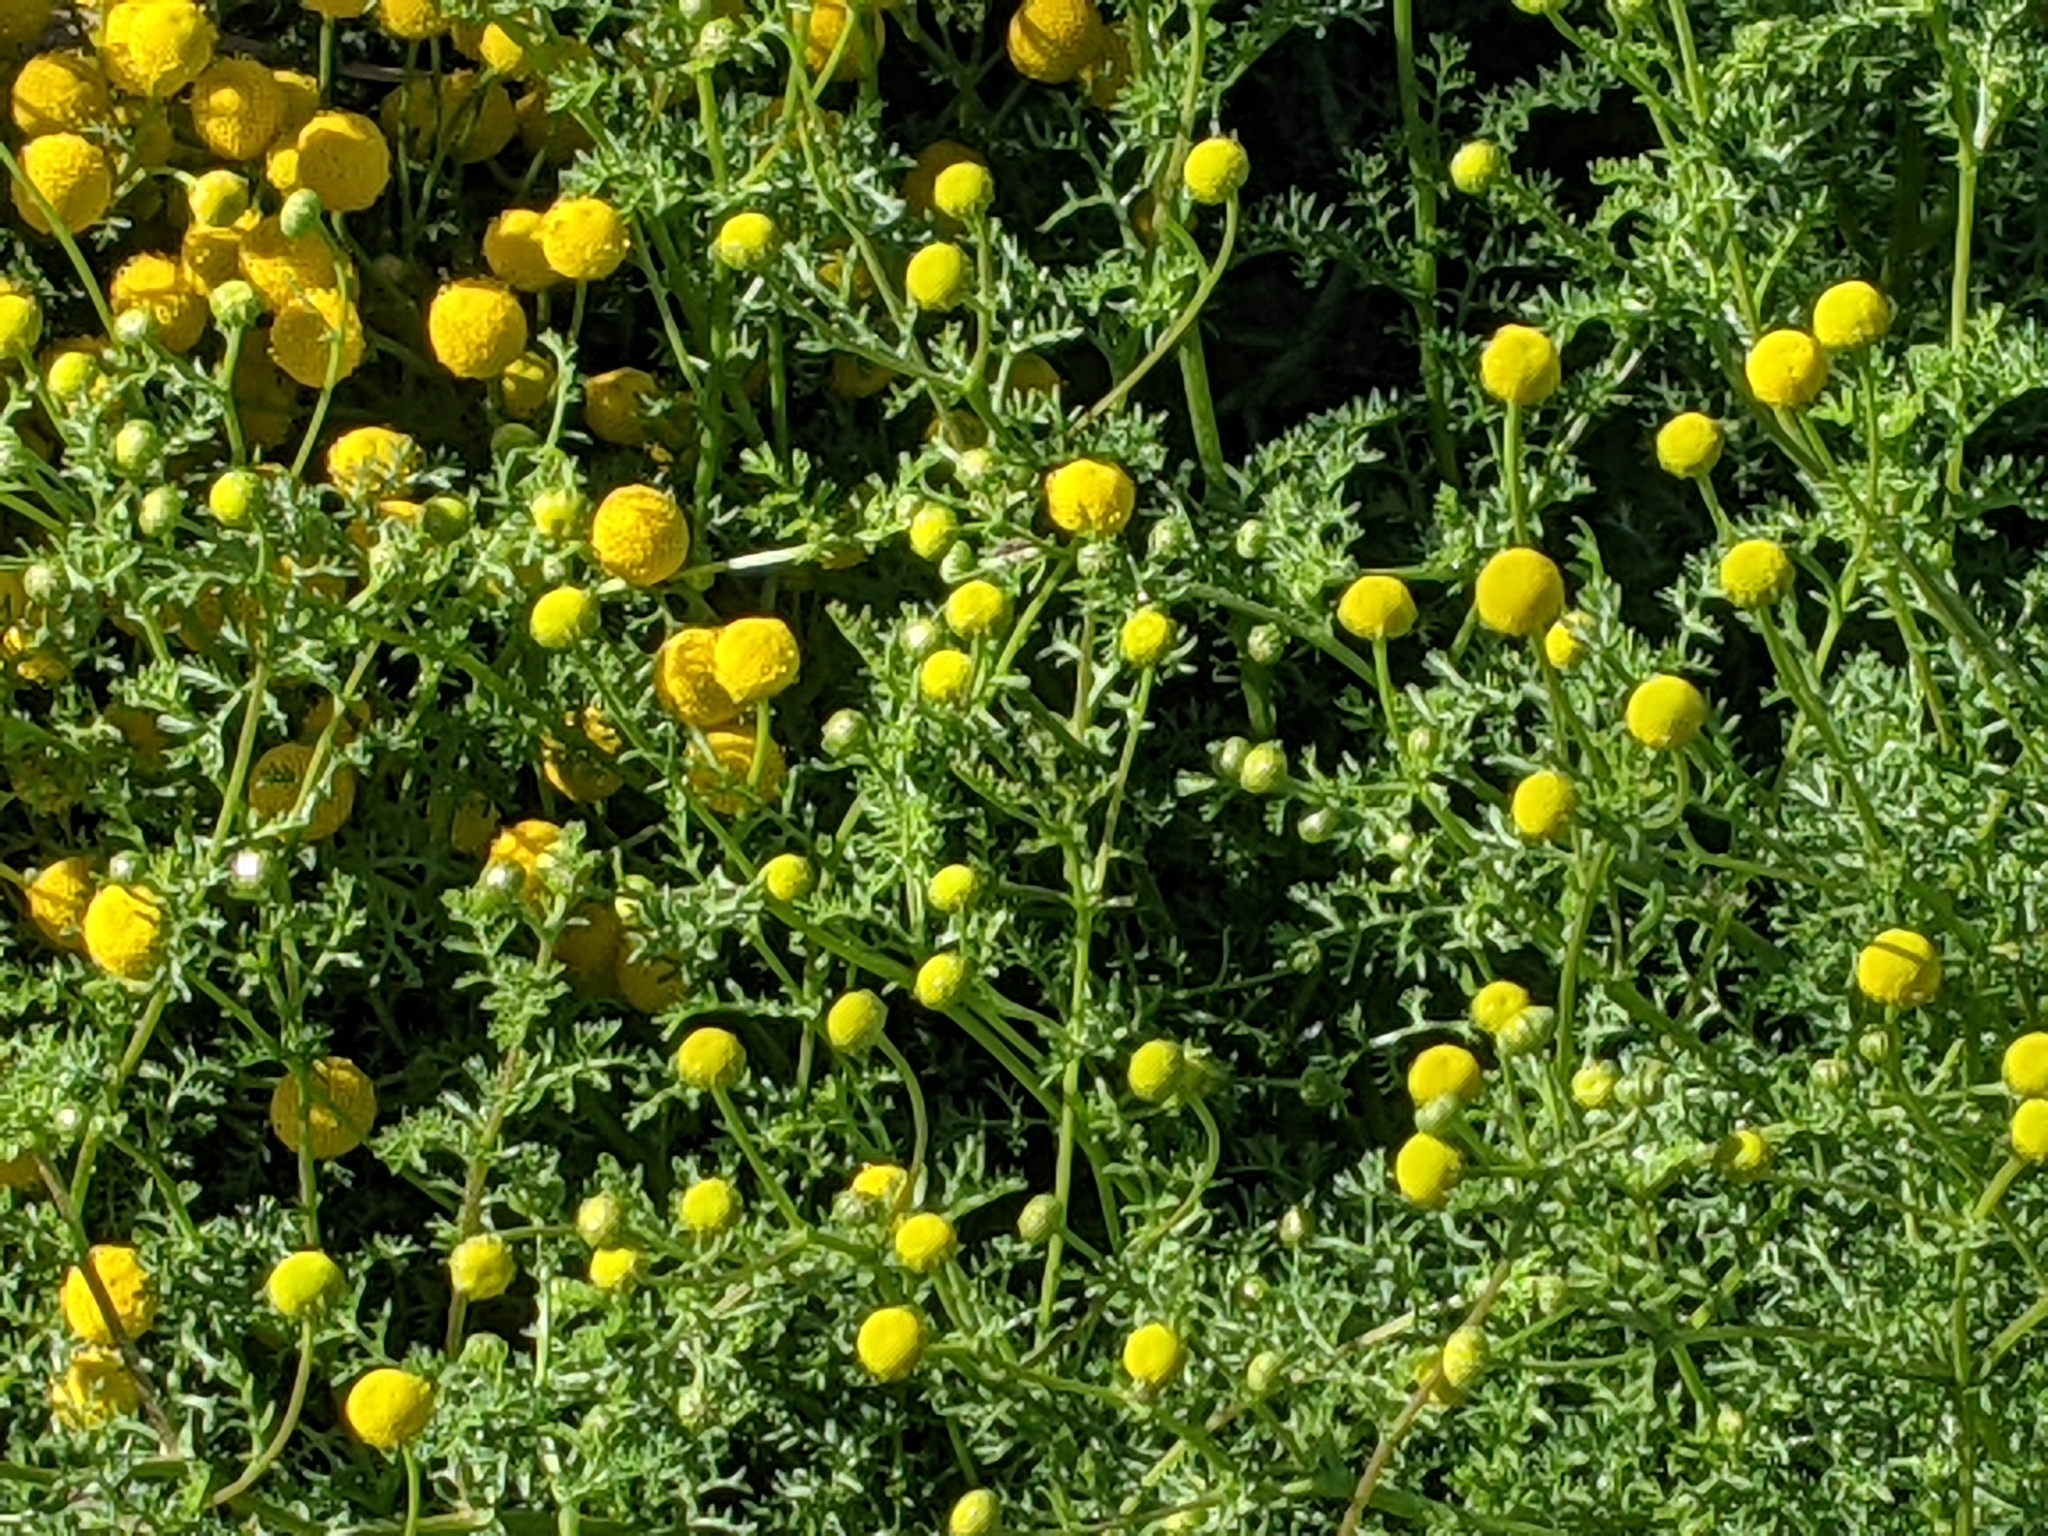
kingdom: Plantae
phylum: Tracheophyta
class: Magnoliopsida
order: Asterales
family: Asteraceae
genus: Oncosiphon
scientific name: Oncosiphon pilulifer
